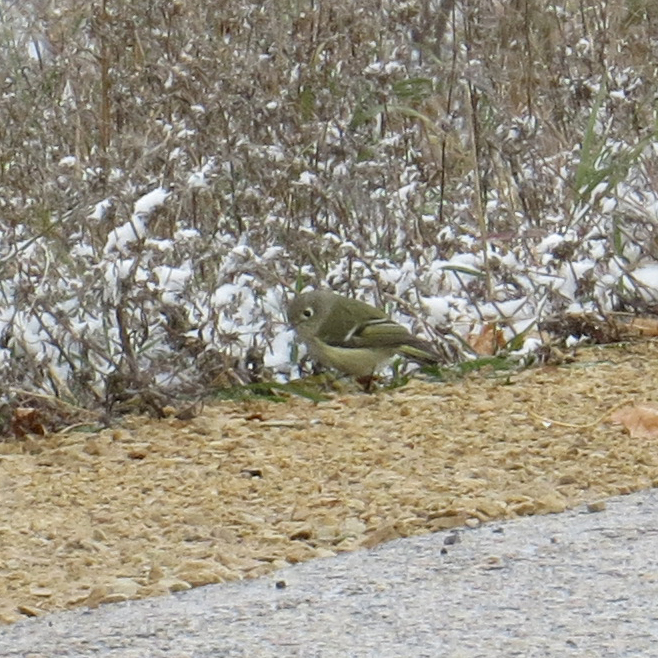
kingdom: Animalia
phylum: Chordata
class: Aves
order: Passeriformes
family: Regulidae
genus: Regulus
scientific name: Regulus calendula
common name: Ruby-crowned kinglet
